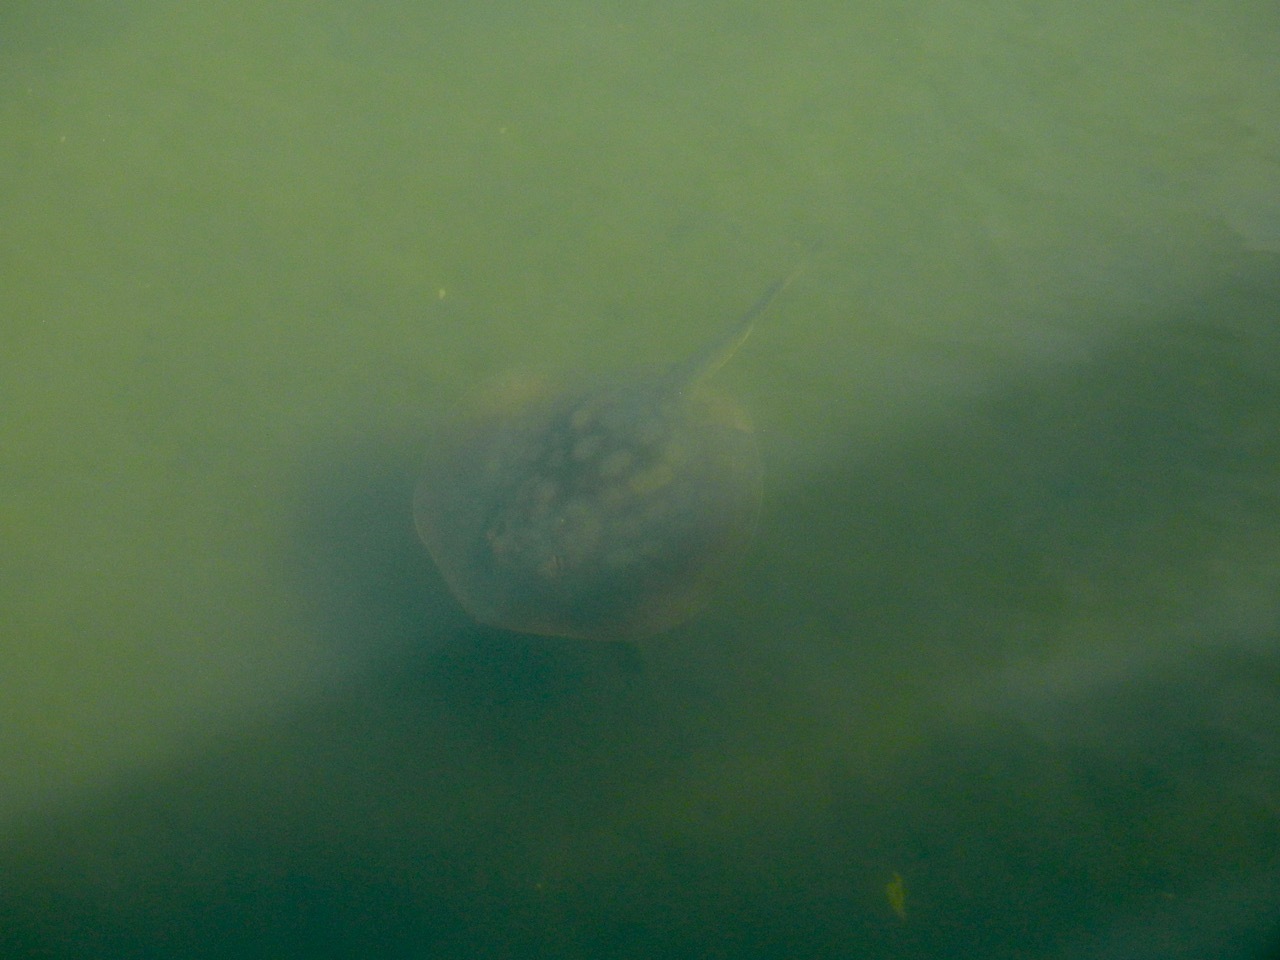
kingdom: Animalia
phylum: Chordata
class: Elasmobranchii
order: Myliobatiformes
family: Urolophidae
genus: Urolophus
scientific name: Urolophus halleri
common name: Round stingray
